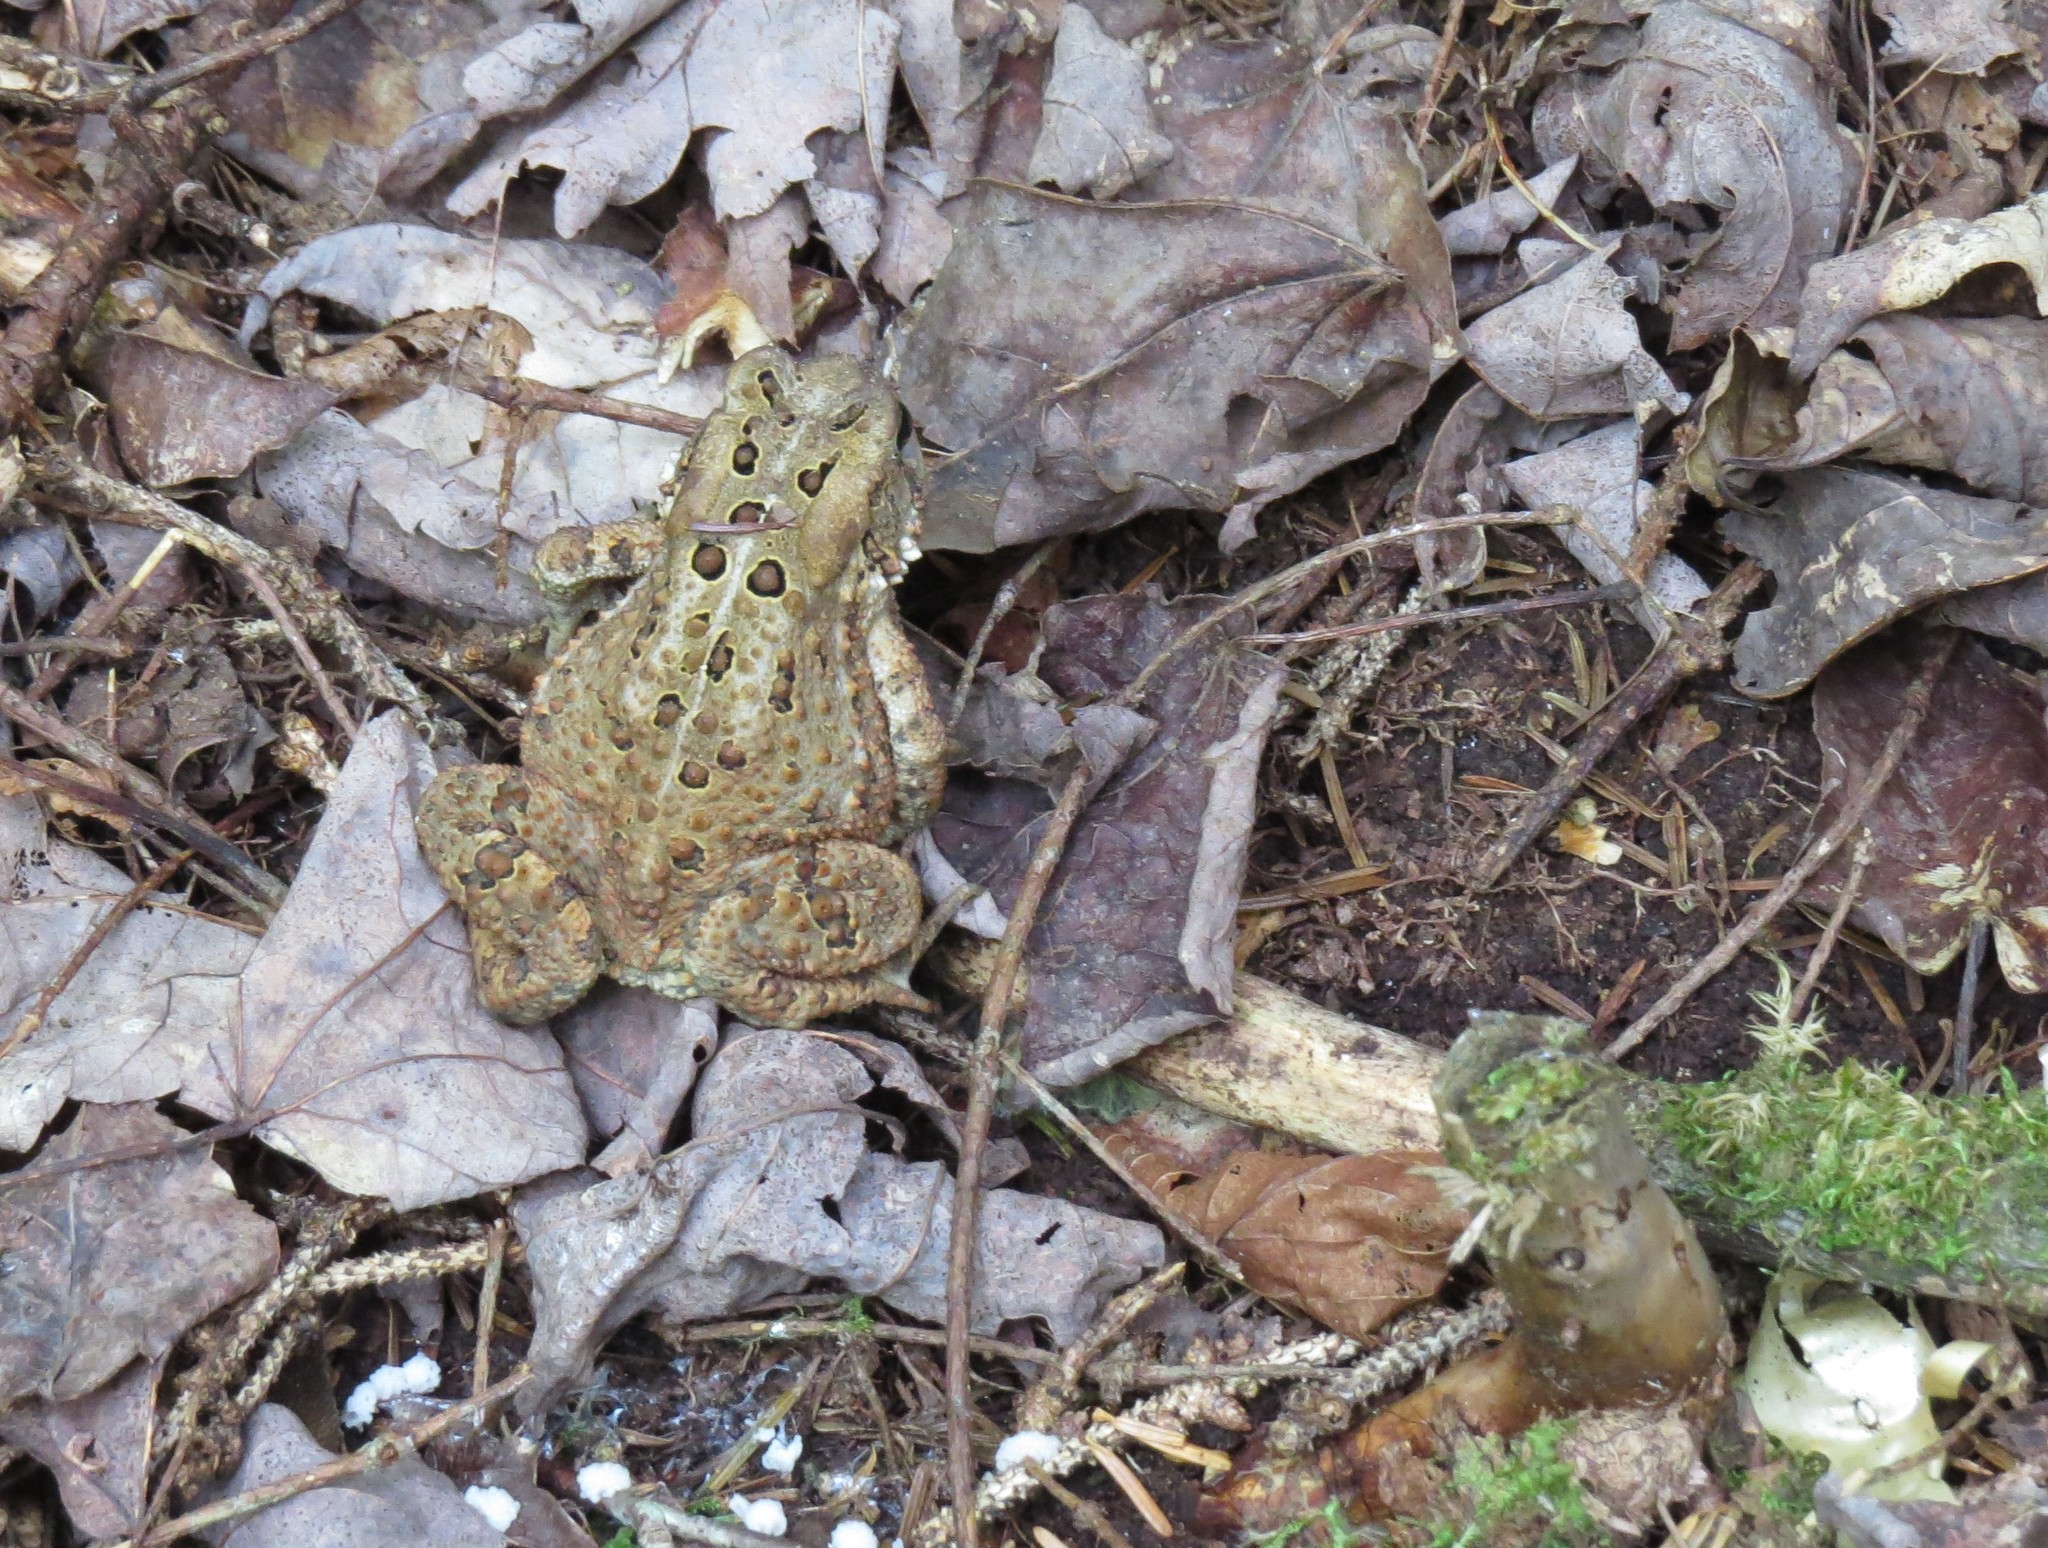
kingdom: Animalia
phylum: Chordata
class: Amphibia
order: Anura
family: Bufonidae
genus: Anaxyrus
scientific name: Anaxyrus americanus
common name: American toad
